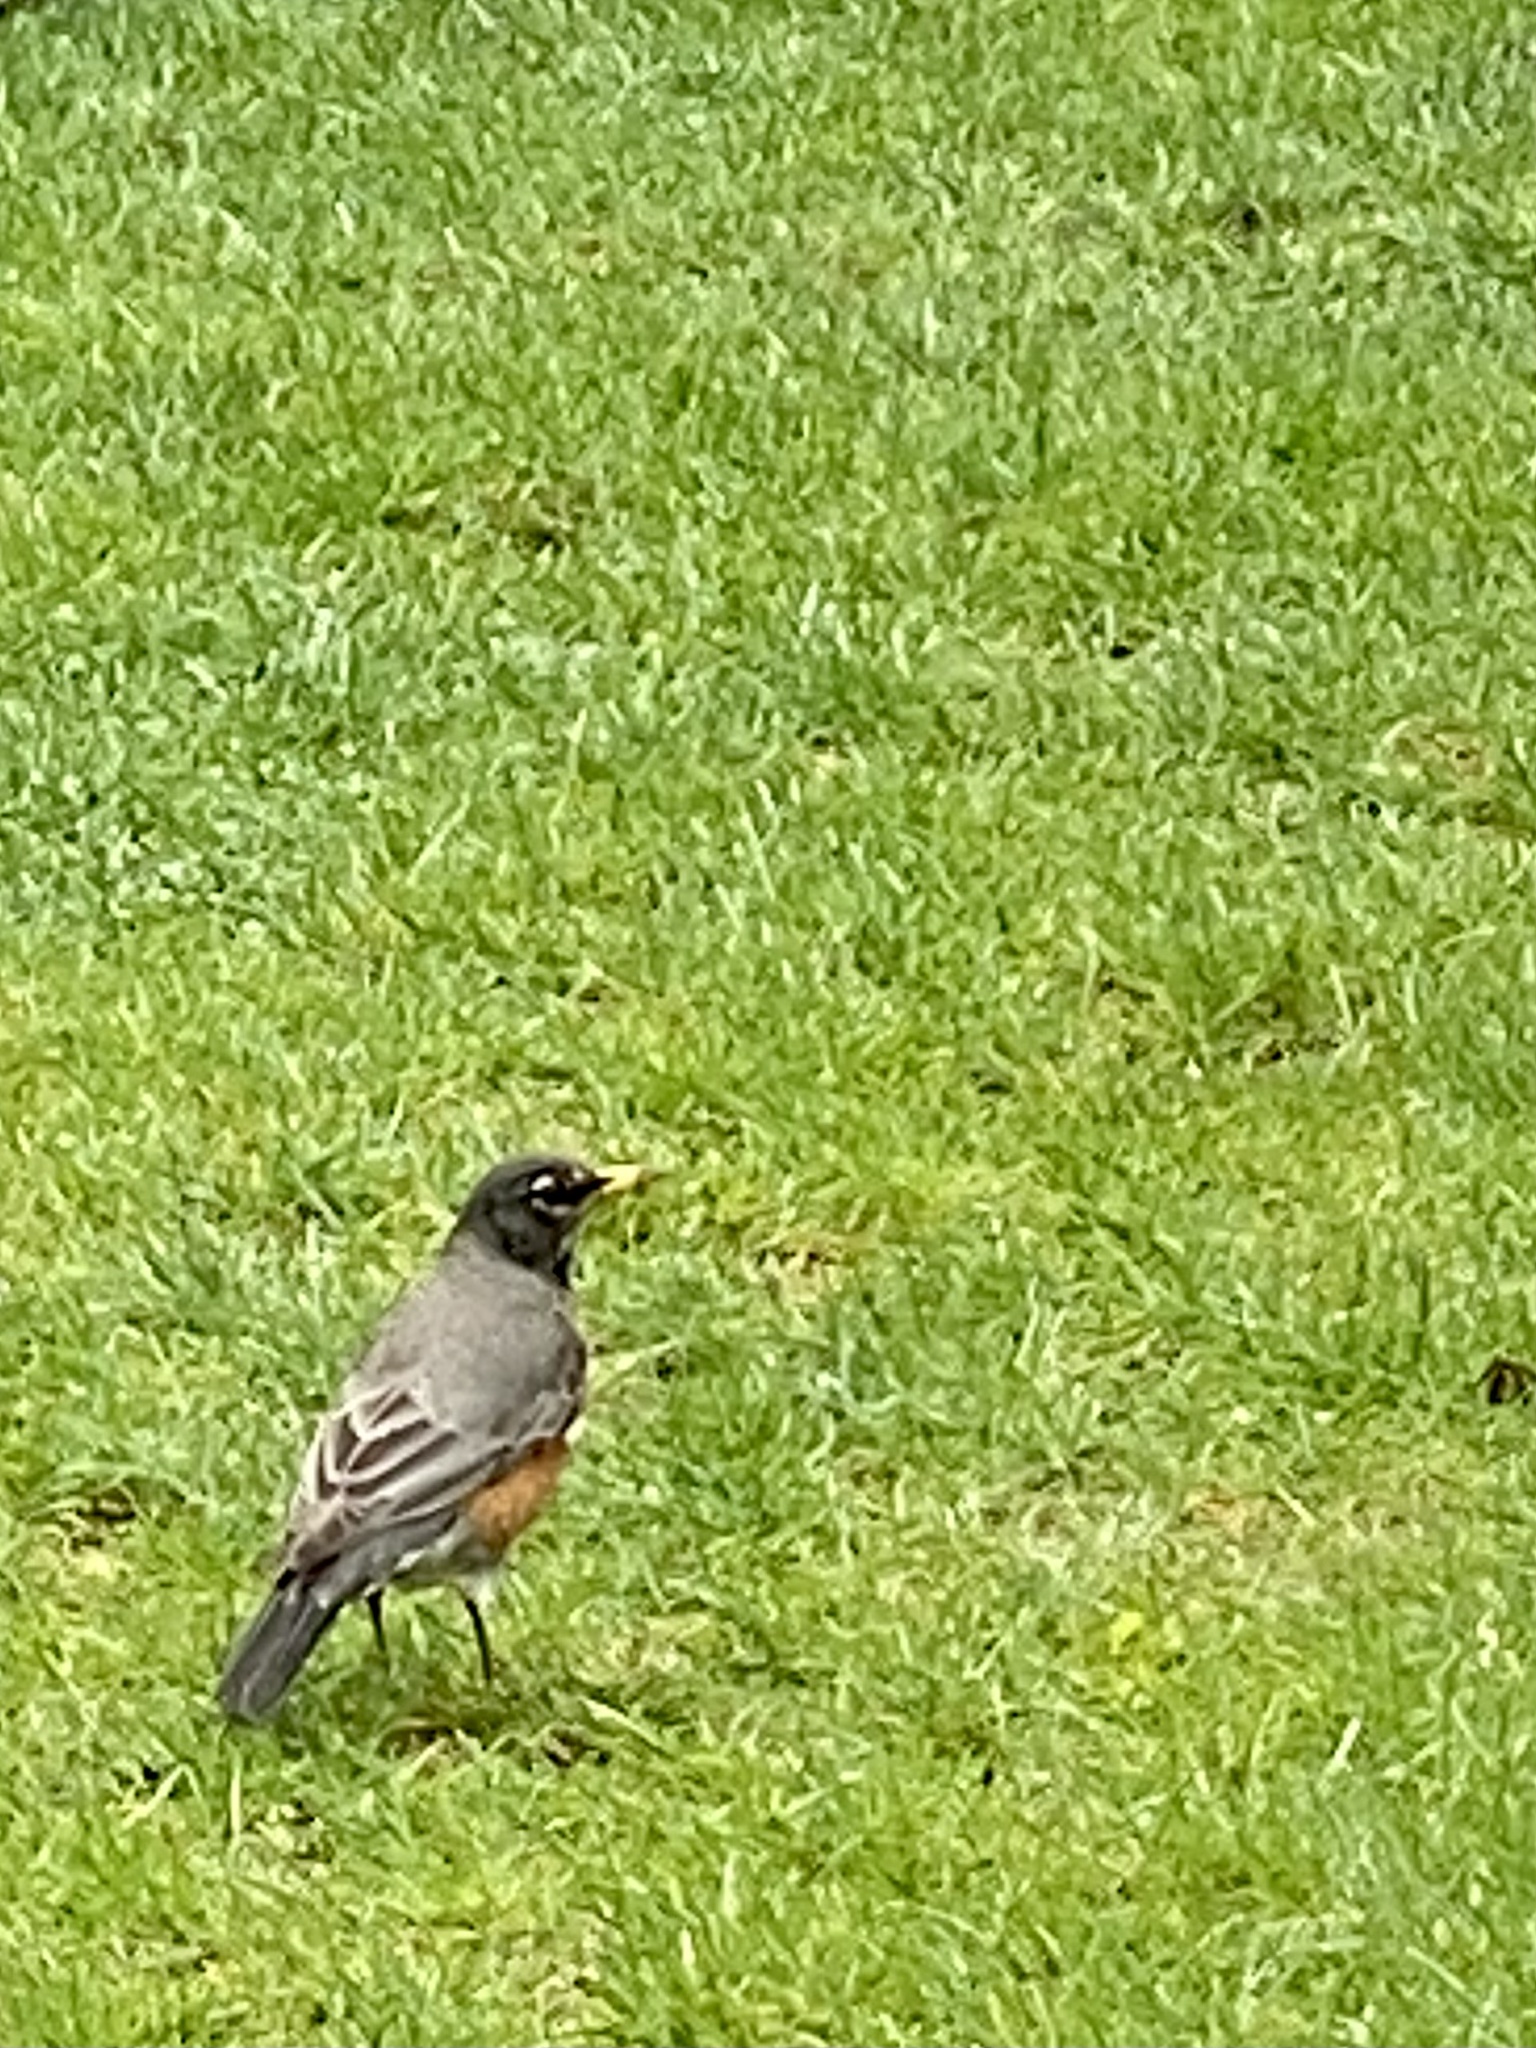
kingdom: Animalia
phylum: Chordata
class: Aves
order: Passeriformes
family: Turdidae
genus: Turdus
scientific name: Turdus migratorius
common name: American robin
